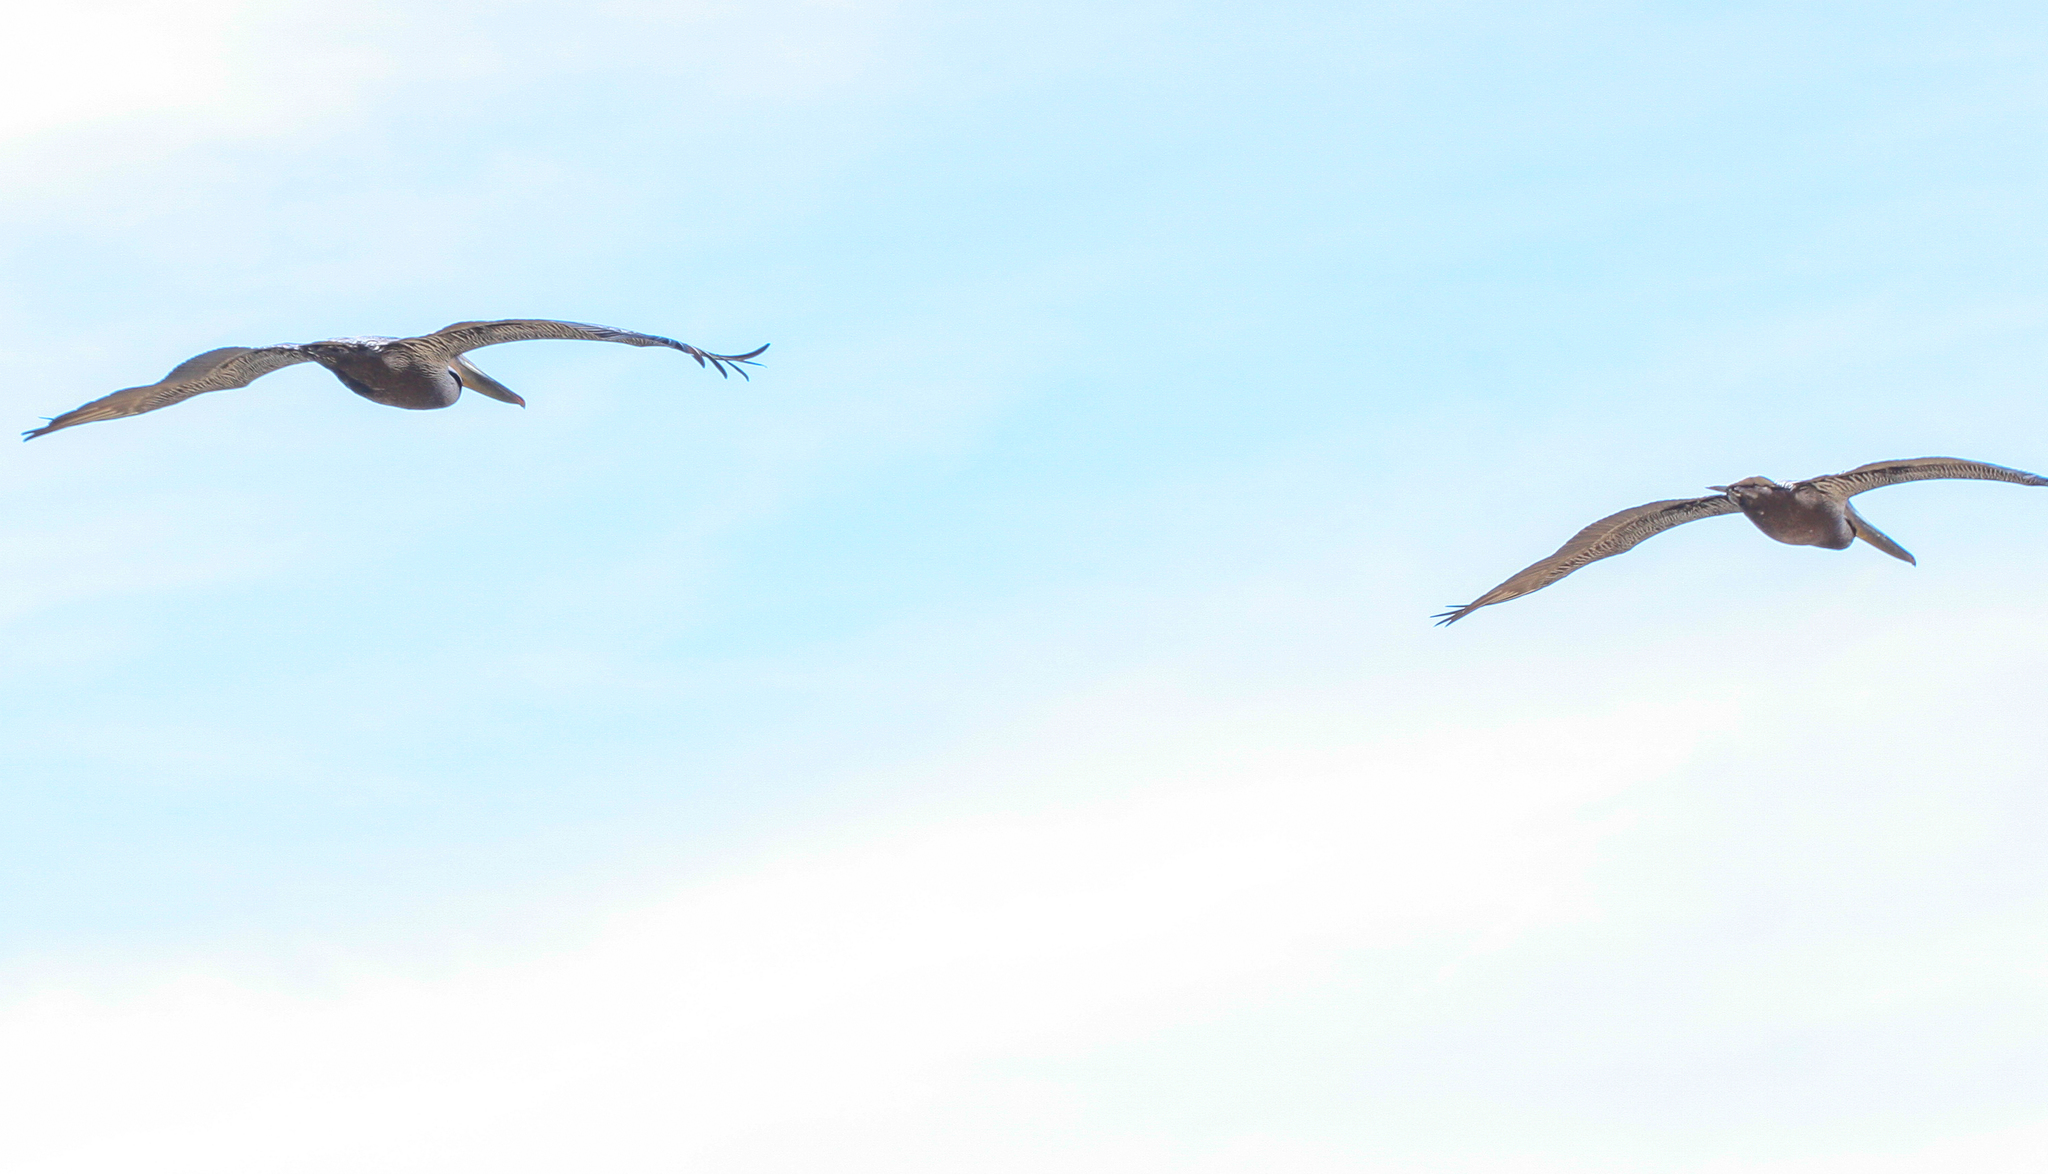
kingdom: Animalia
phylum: Chordata
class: Aves
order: Pelecaniformes
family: Pelecanidae
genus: Pelecanus
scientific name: Pelecanus occidentalis
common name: Brown pelican
